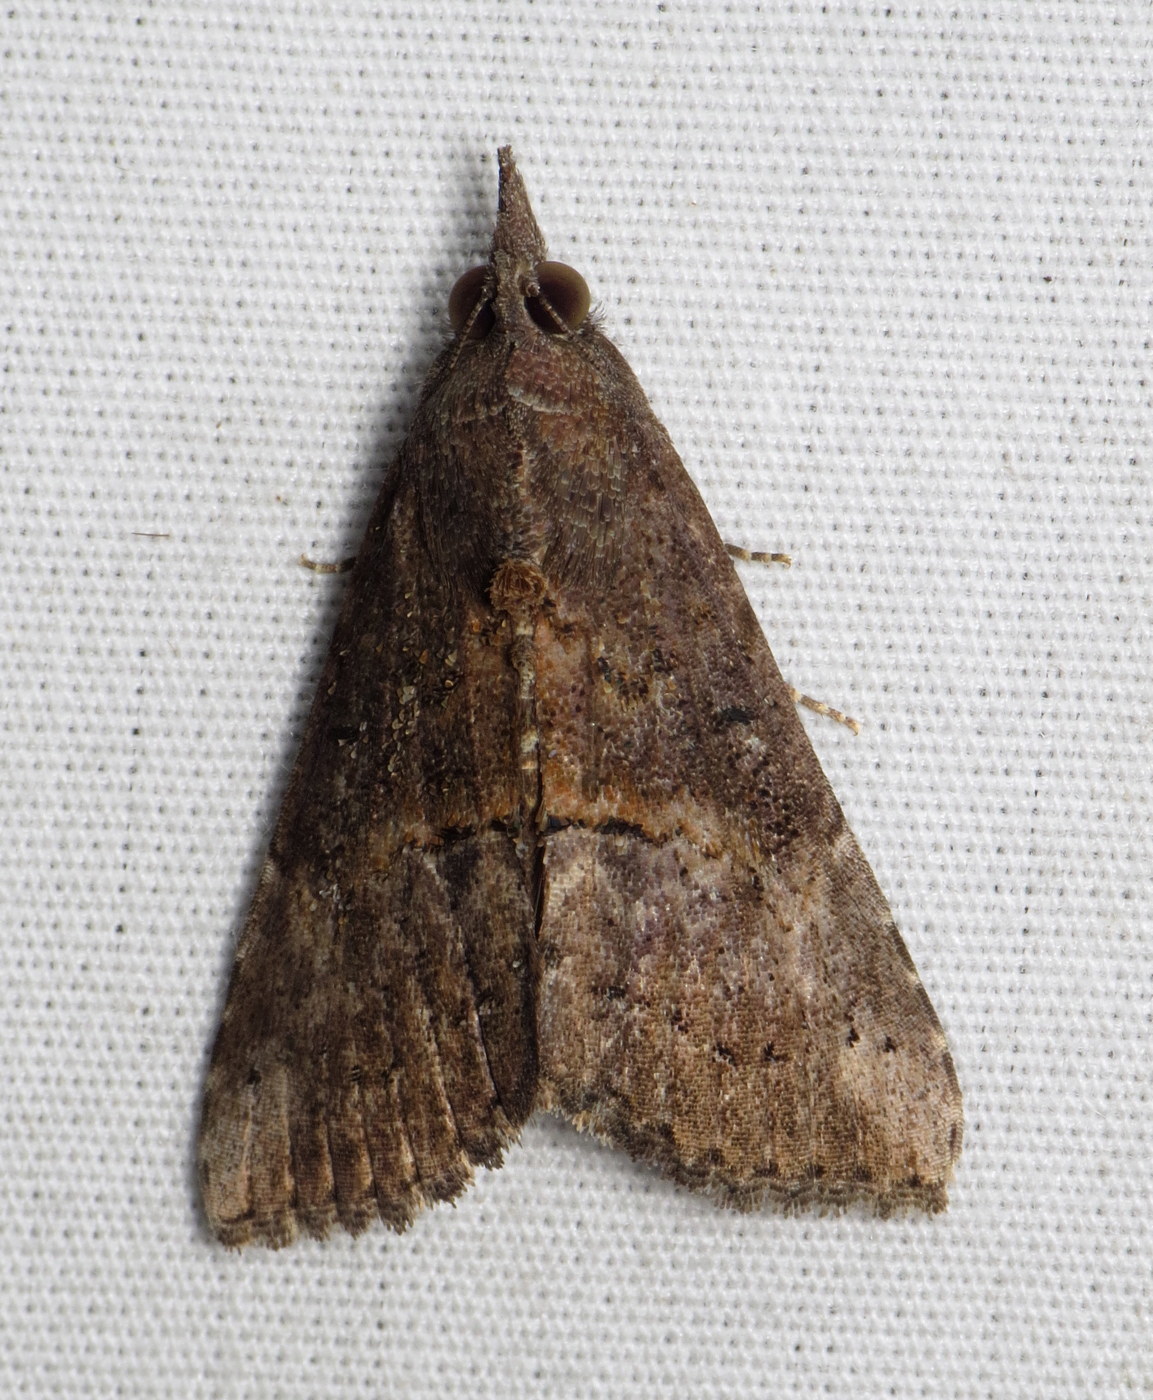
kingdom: Animalia
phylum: Arthropoda
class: Insecta
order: Lepidoptera
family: Erebidae
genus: Hypena
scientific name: Hypena scabra
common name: Green cloverworm
